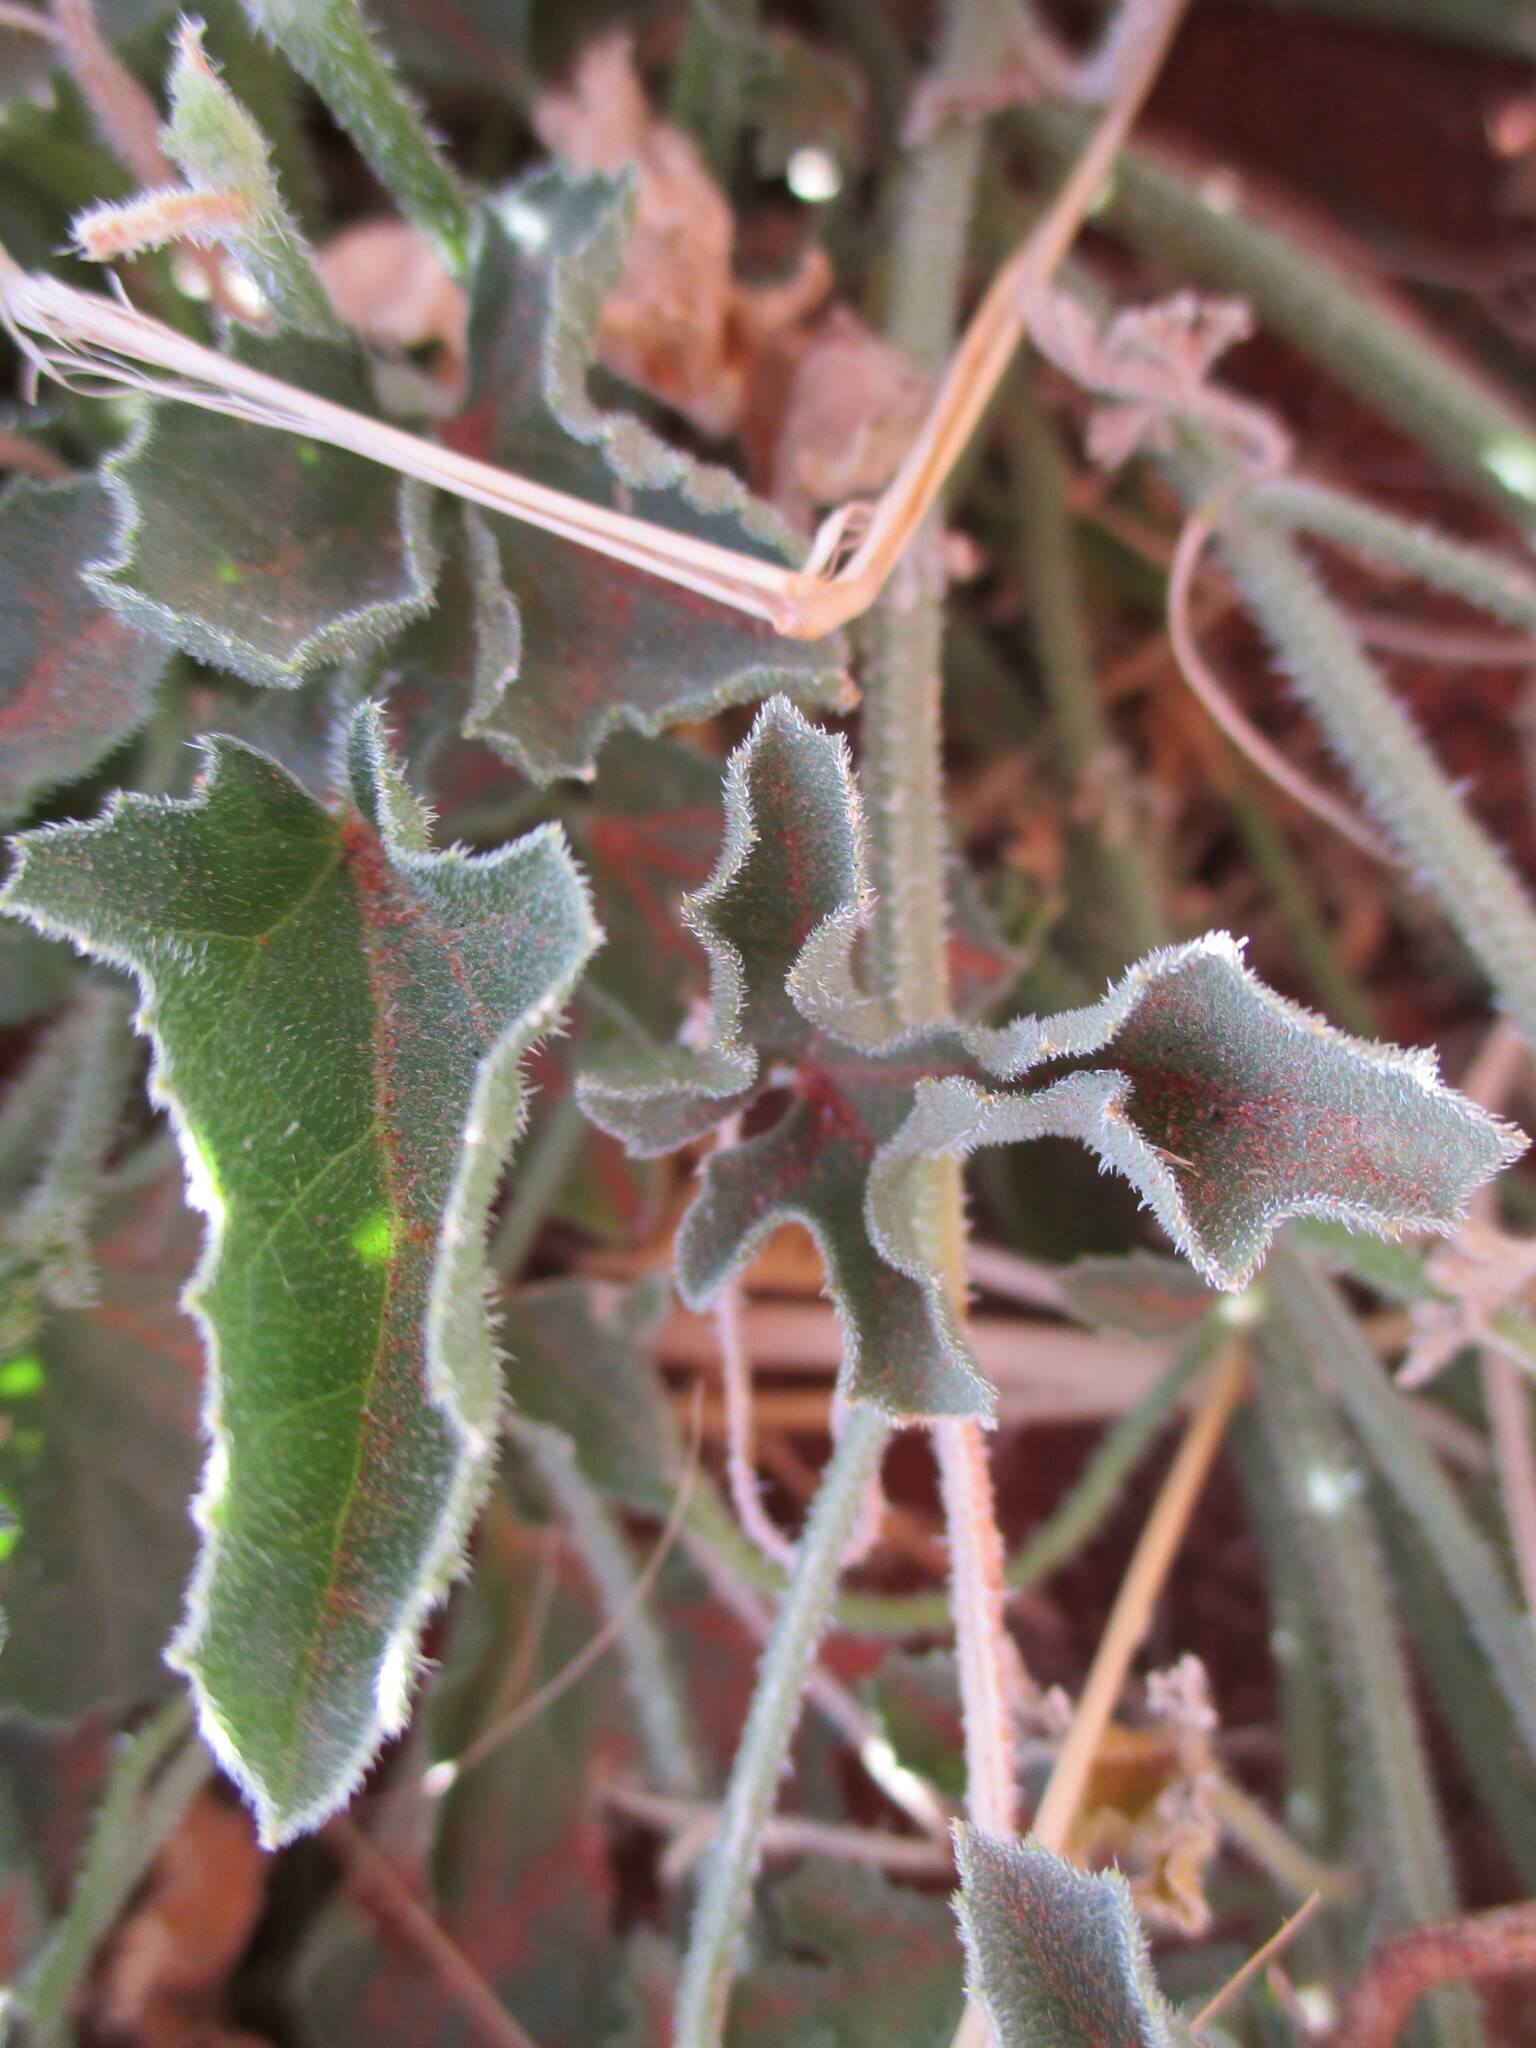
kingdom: Plantae
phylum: Tracheophyta
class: Magnoliopsida
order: Cucurbitales
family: Cucurbitaceae
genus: Cucumis
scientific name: Cucumis meeusei
